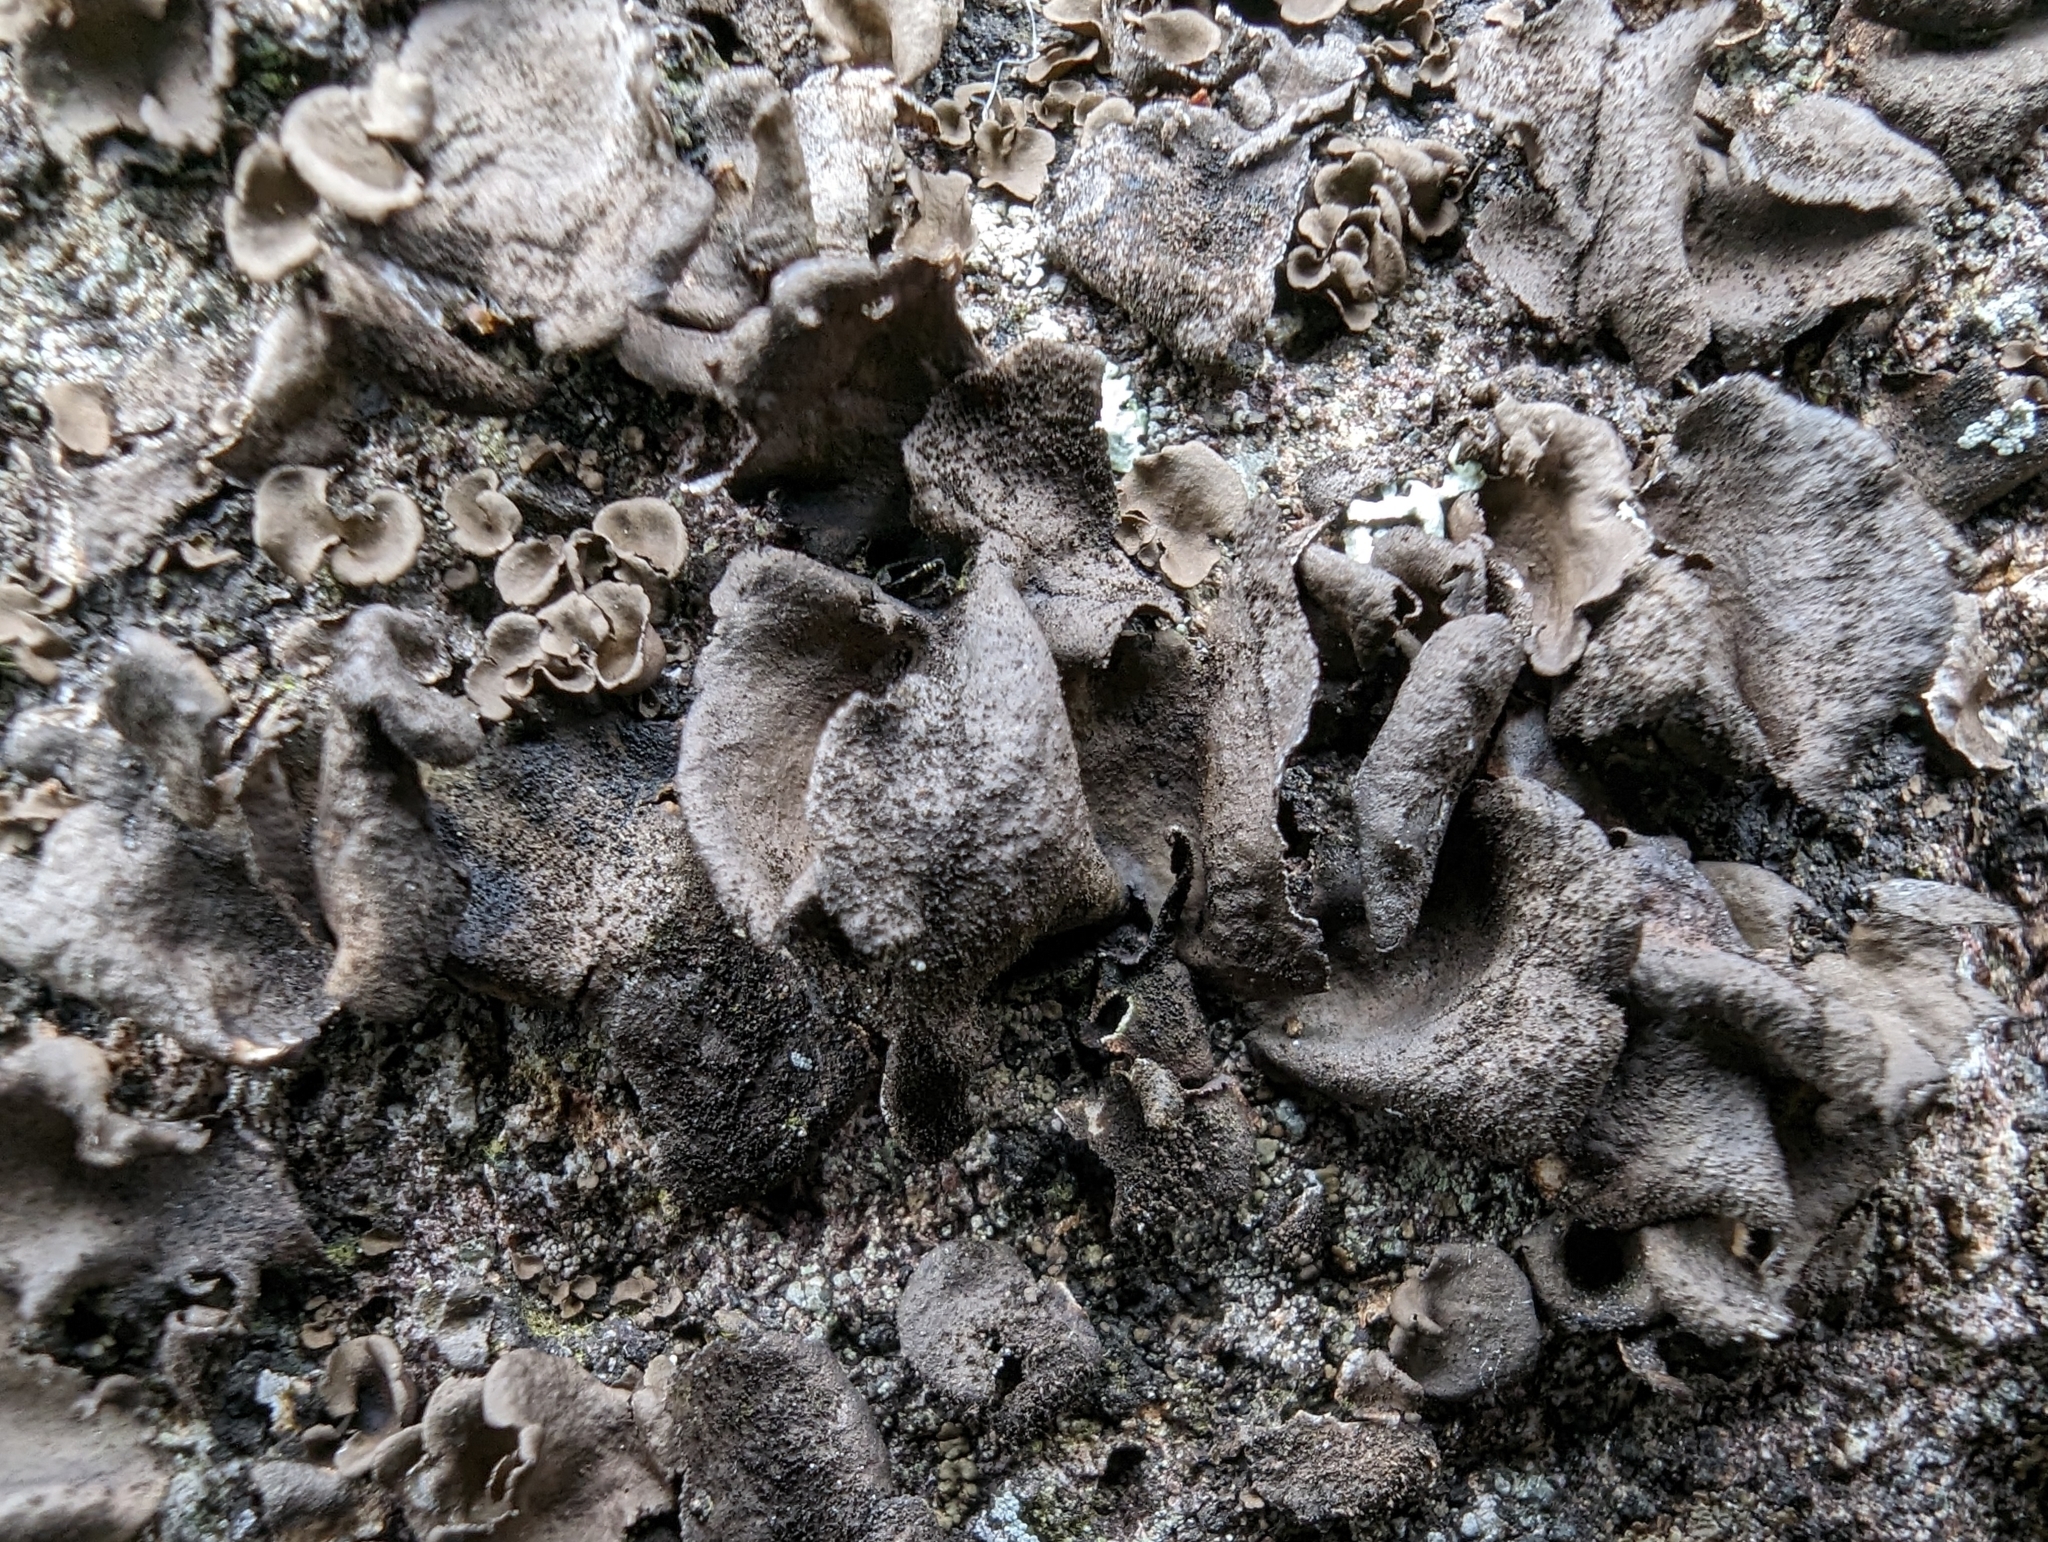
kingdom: Fungi
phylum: Ascomycota
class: Lecanoromycetes
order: Umbilicariales
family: Umbilicariaceae
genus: Umbilicaria
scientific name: Umbilicaria deusta
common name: Peppered rock tripe
